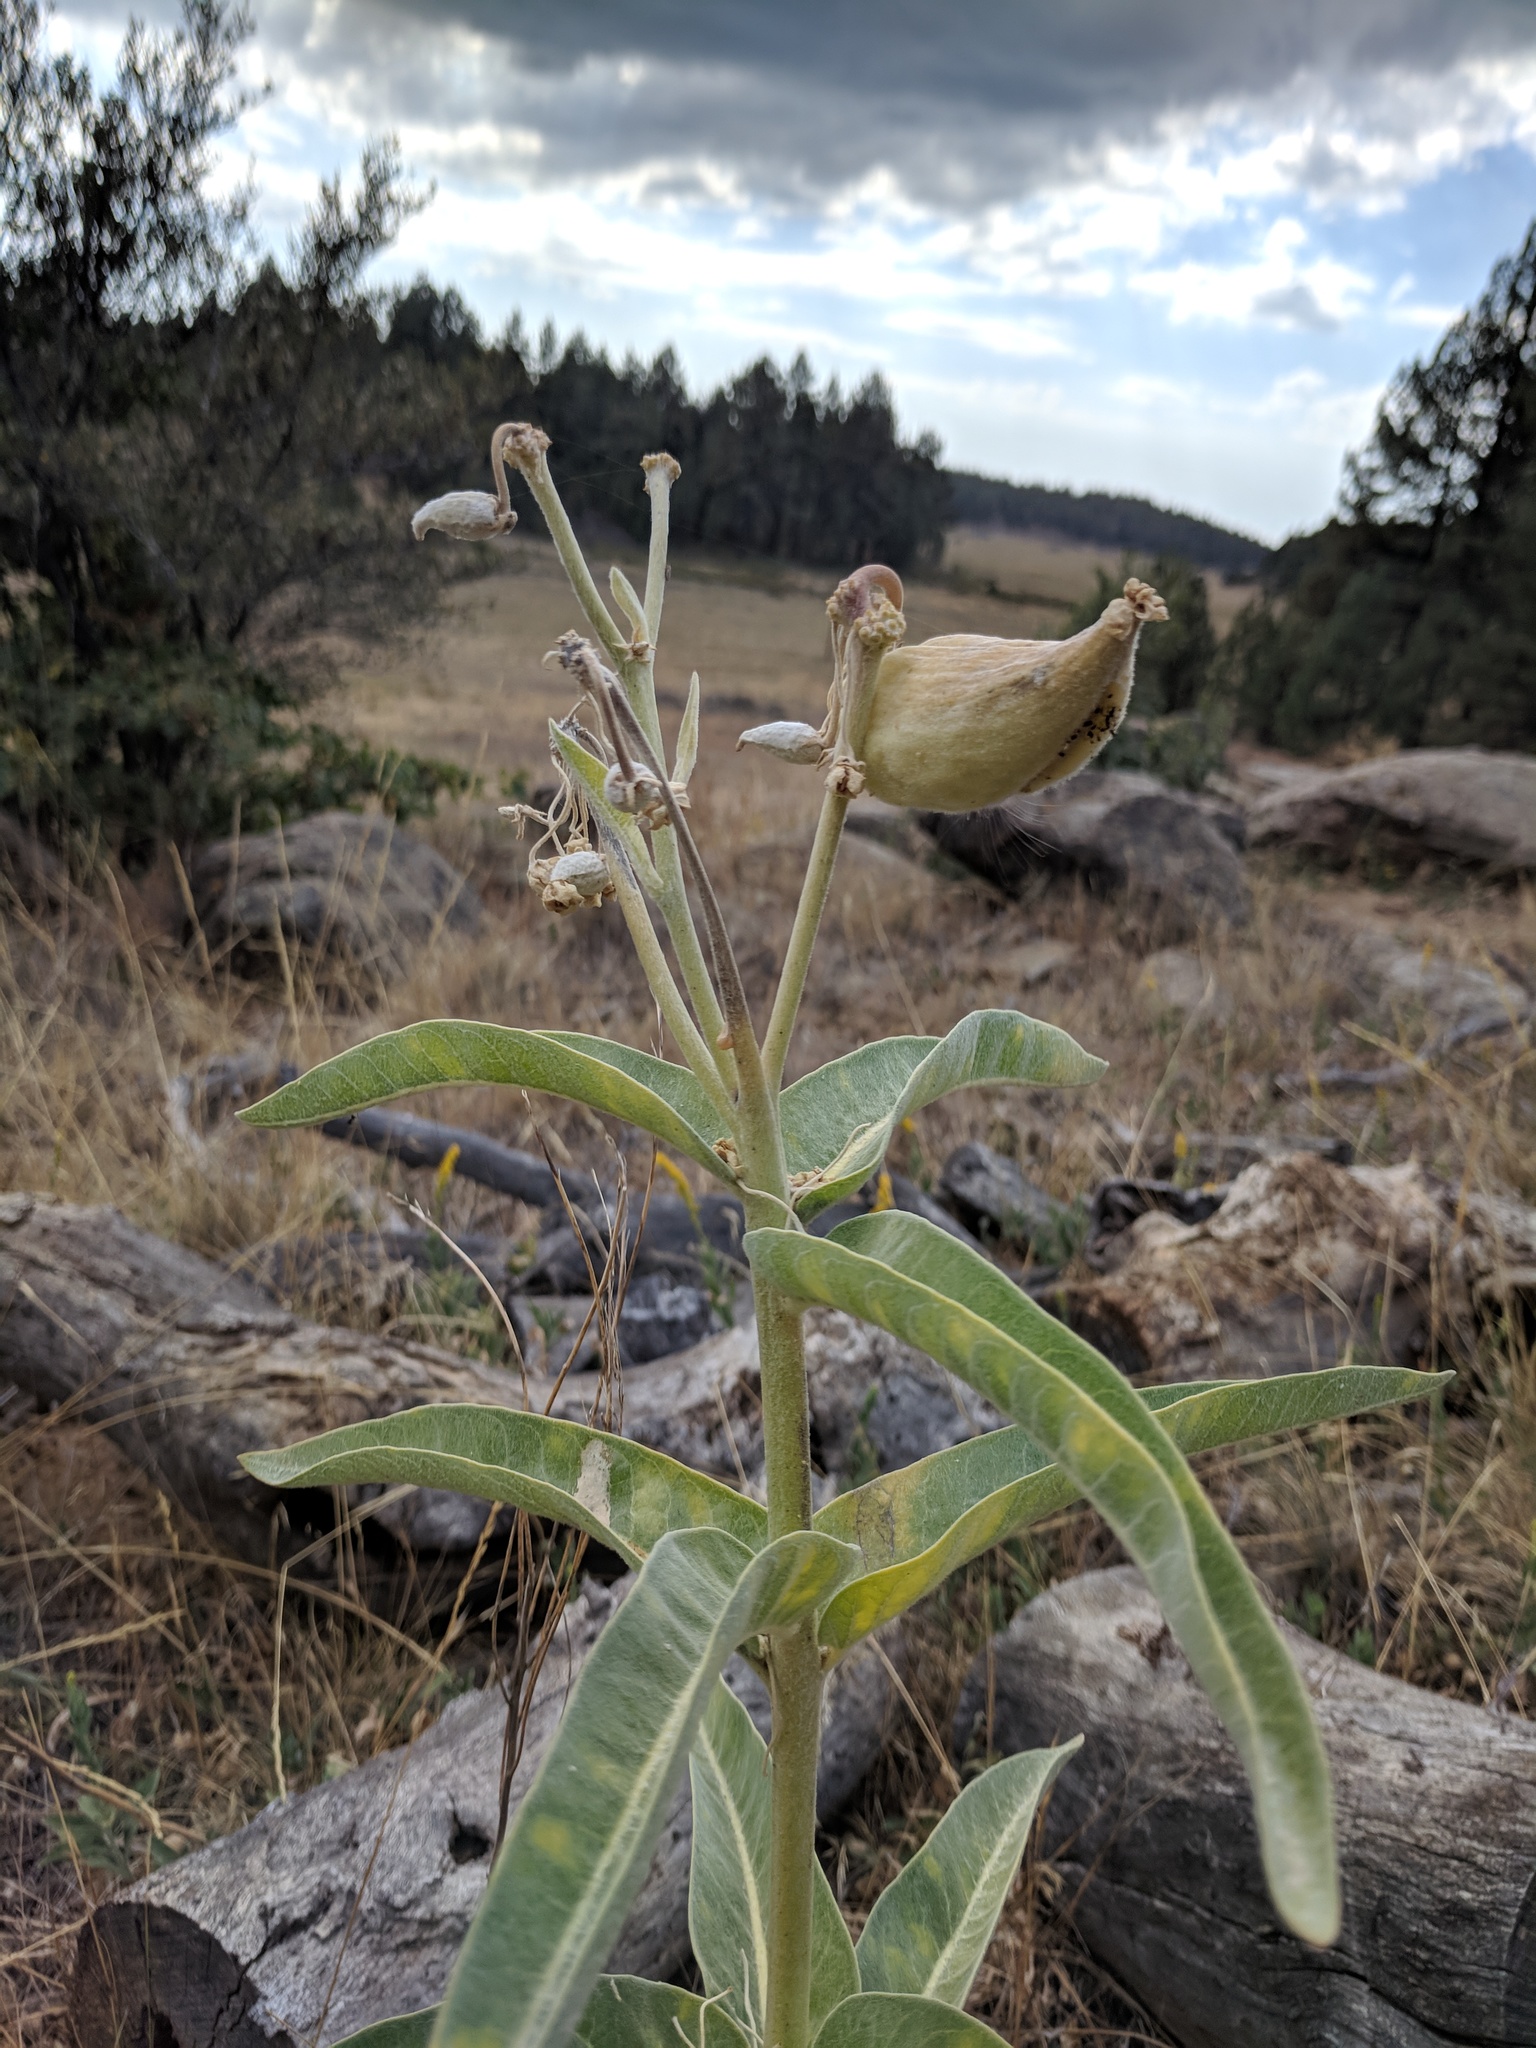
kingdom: Plantae
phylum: Tracheophyta
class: Magnoliopsida
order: Gentianales
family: Apocynaceae
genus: Asclepias
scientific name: Asclepias eriocarpa
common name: Indian milkweed
